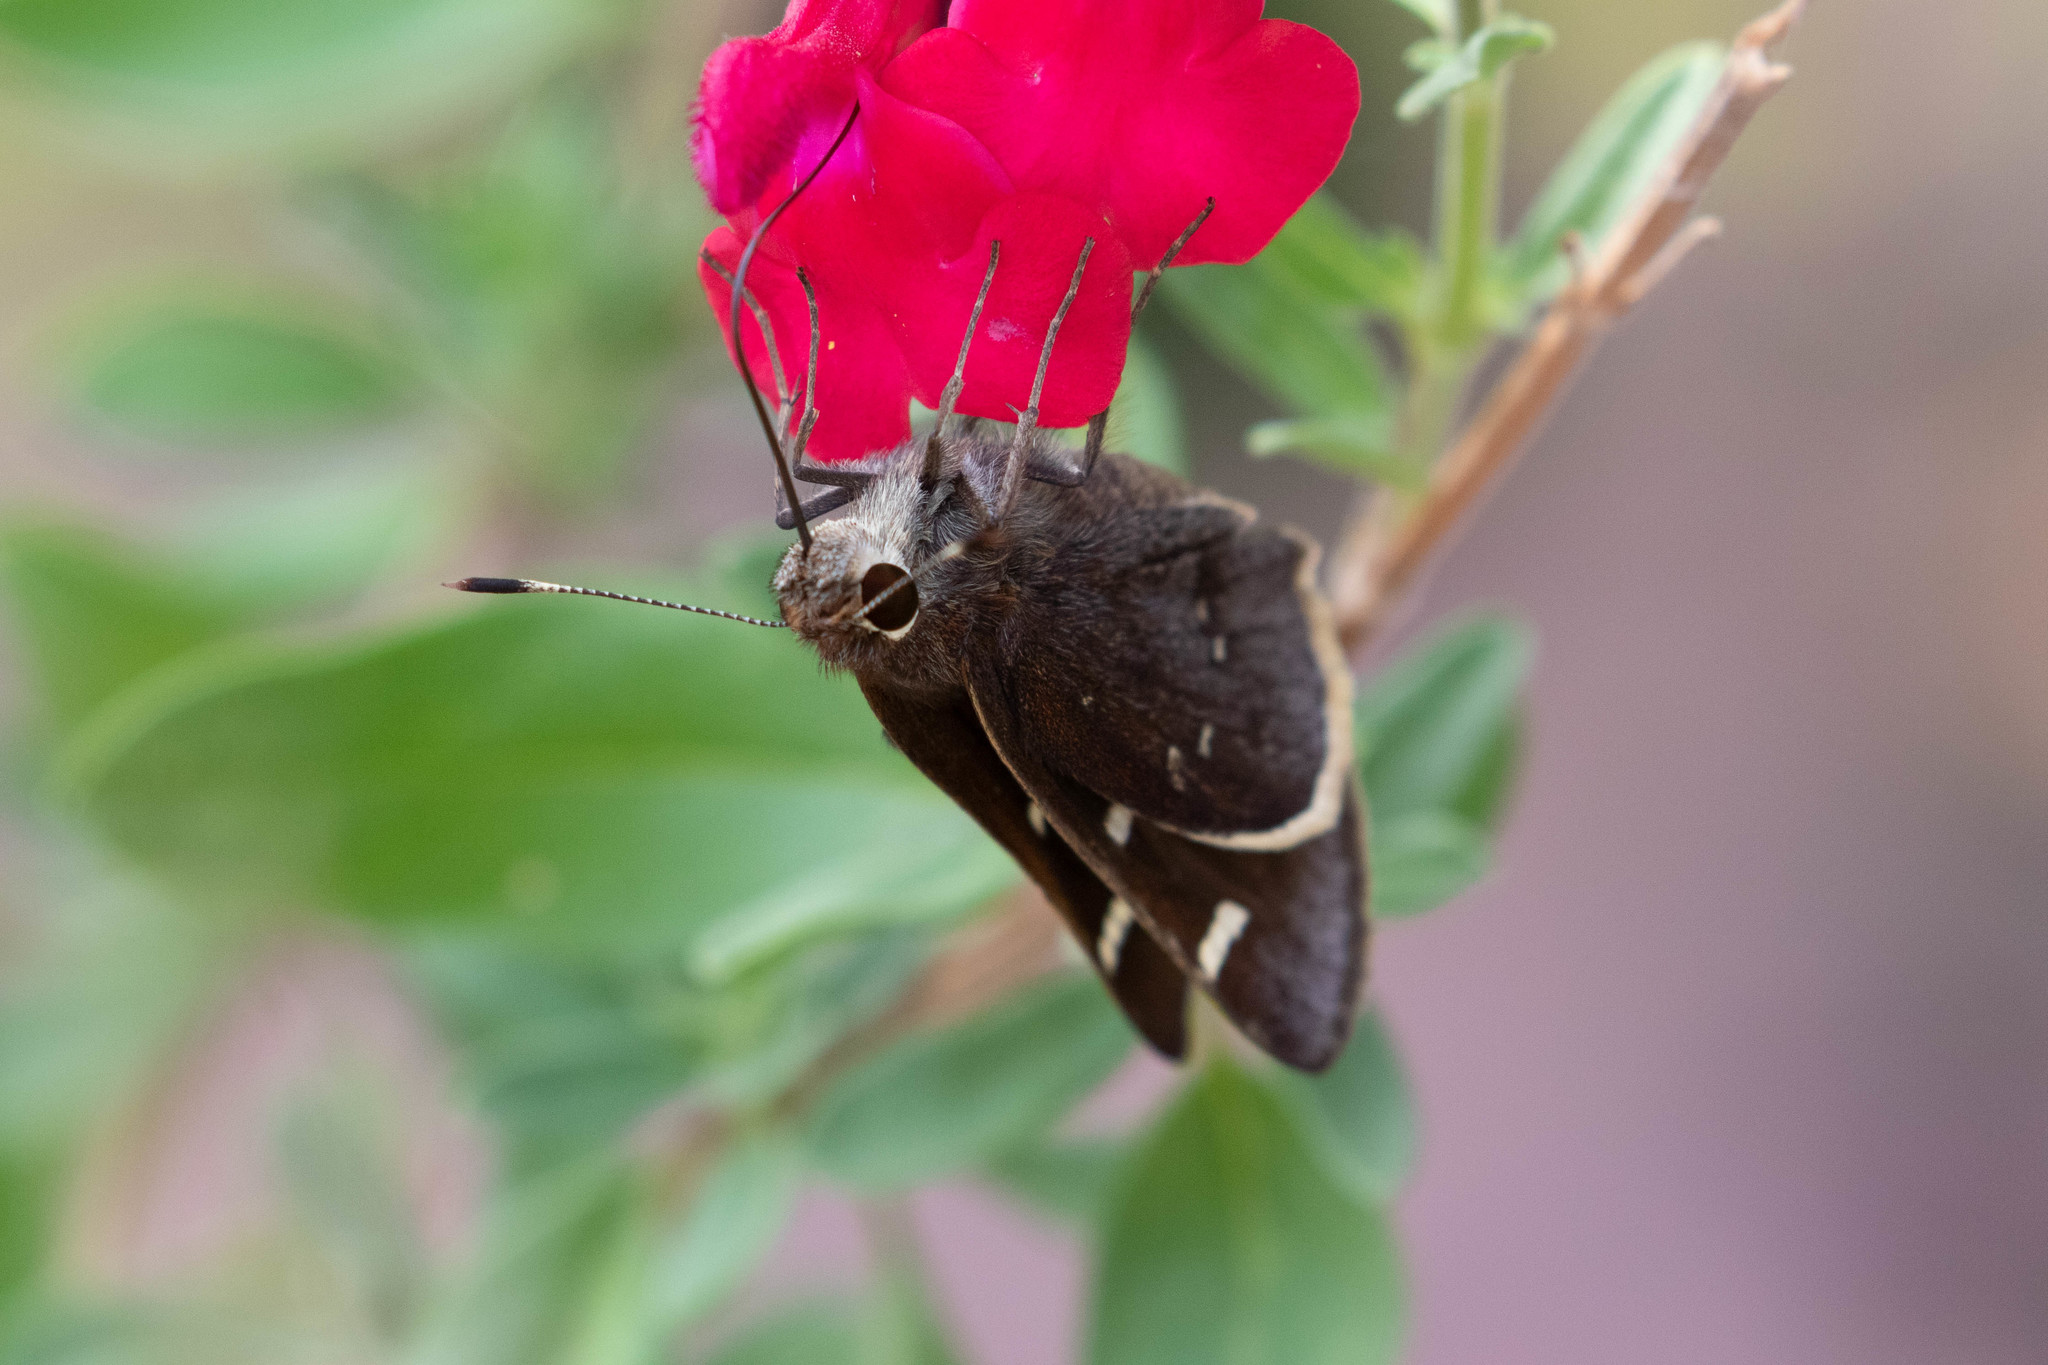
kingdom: Animalia
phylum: Arthropoda
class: Insecta
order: Lepidoptera
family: Hesperiidae
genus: Atrytonopsis
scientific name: Atrytonopsis lunus
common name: Moon-marked skipper
